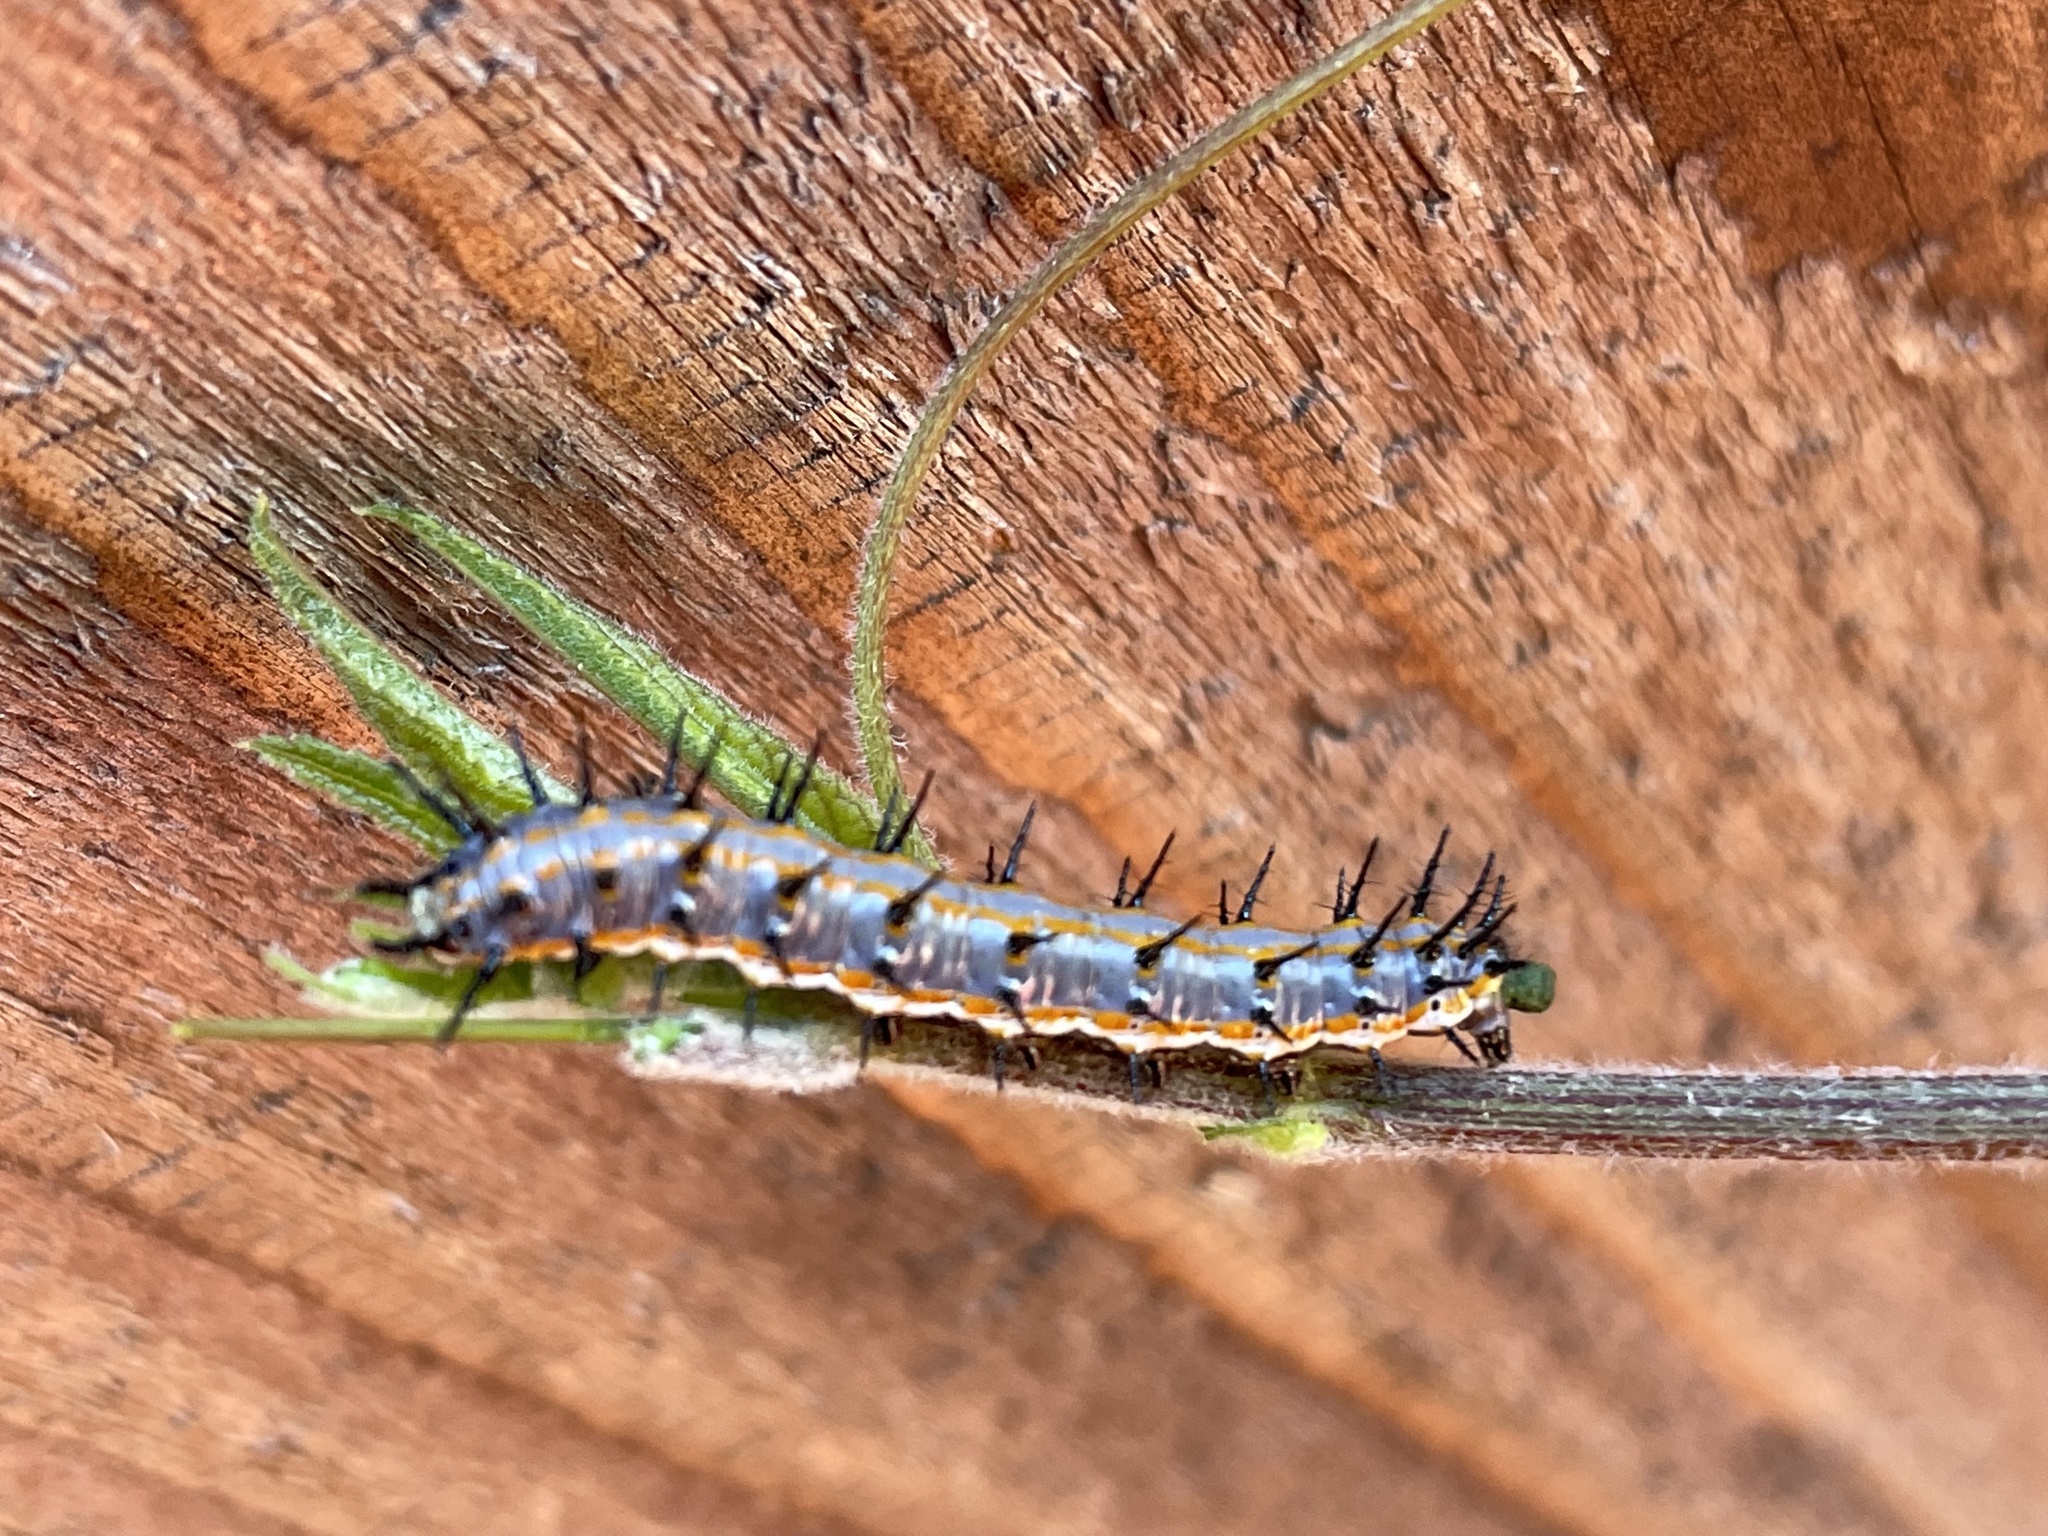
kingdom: Animalia
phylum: Arthropoda
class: Insecta
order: Lepidoptera
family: Nymphalidae
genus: Dione
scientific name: Dione vanillae
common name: Gulf fritillary
